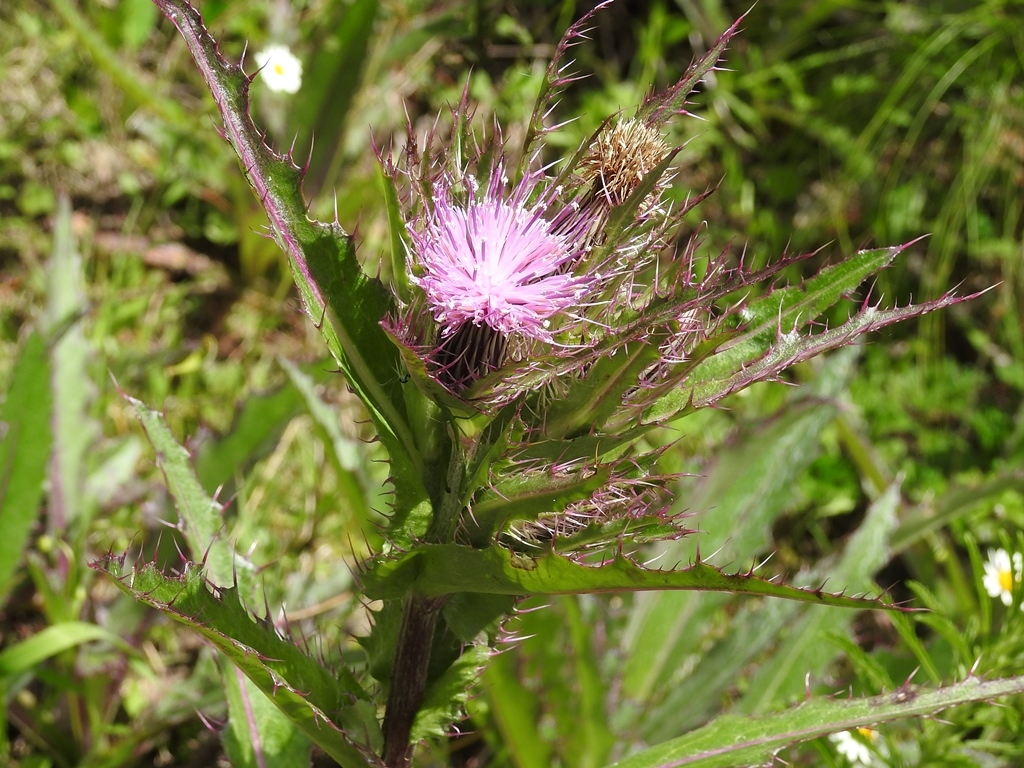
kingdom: Plantae
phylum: Tracheophyta
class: Magnoliopsida
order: Asterales
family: Asteraceae
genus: Cirsium
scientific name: Cirsium horridulum
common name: Bristly thistle
